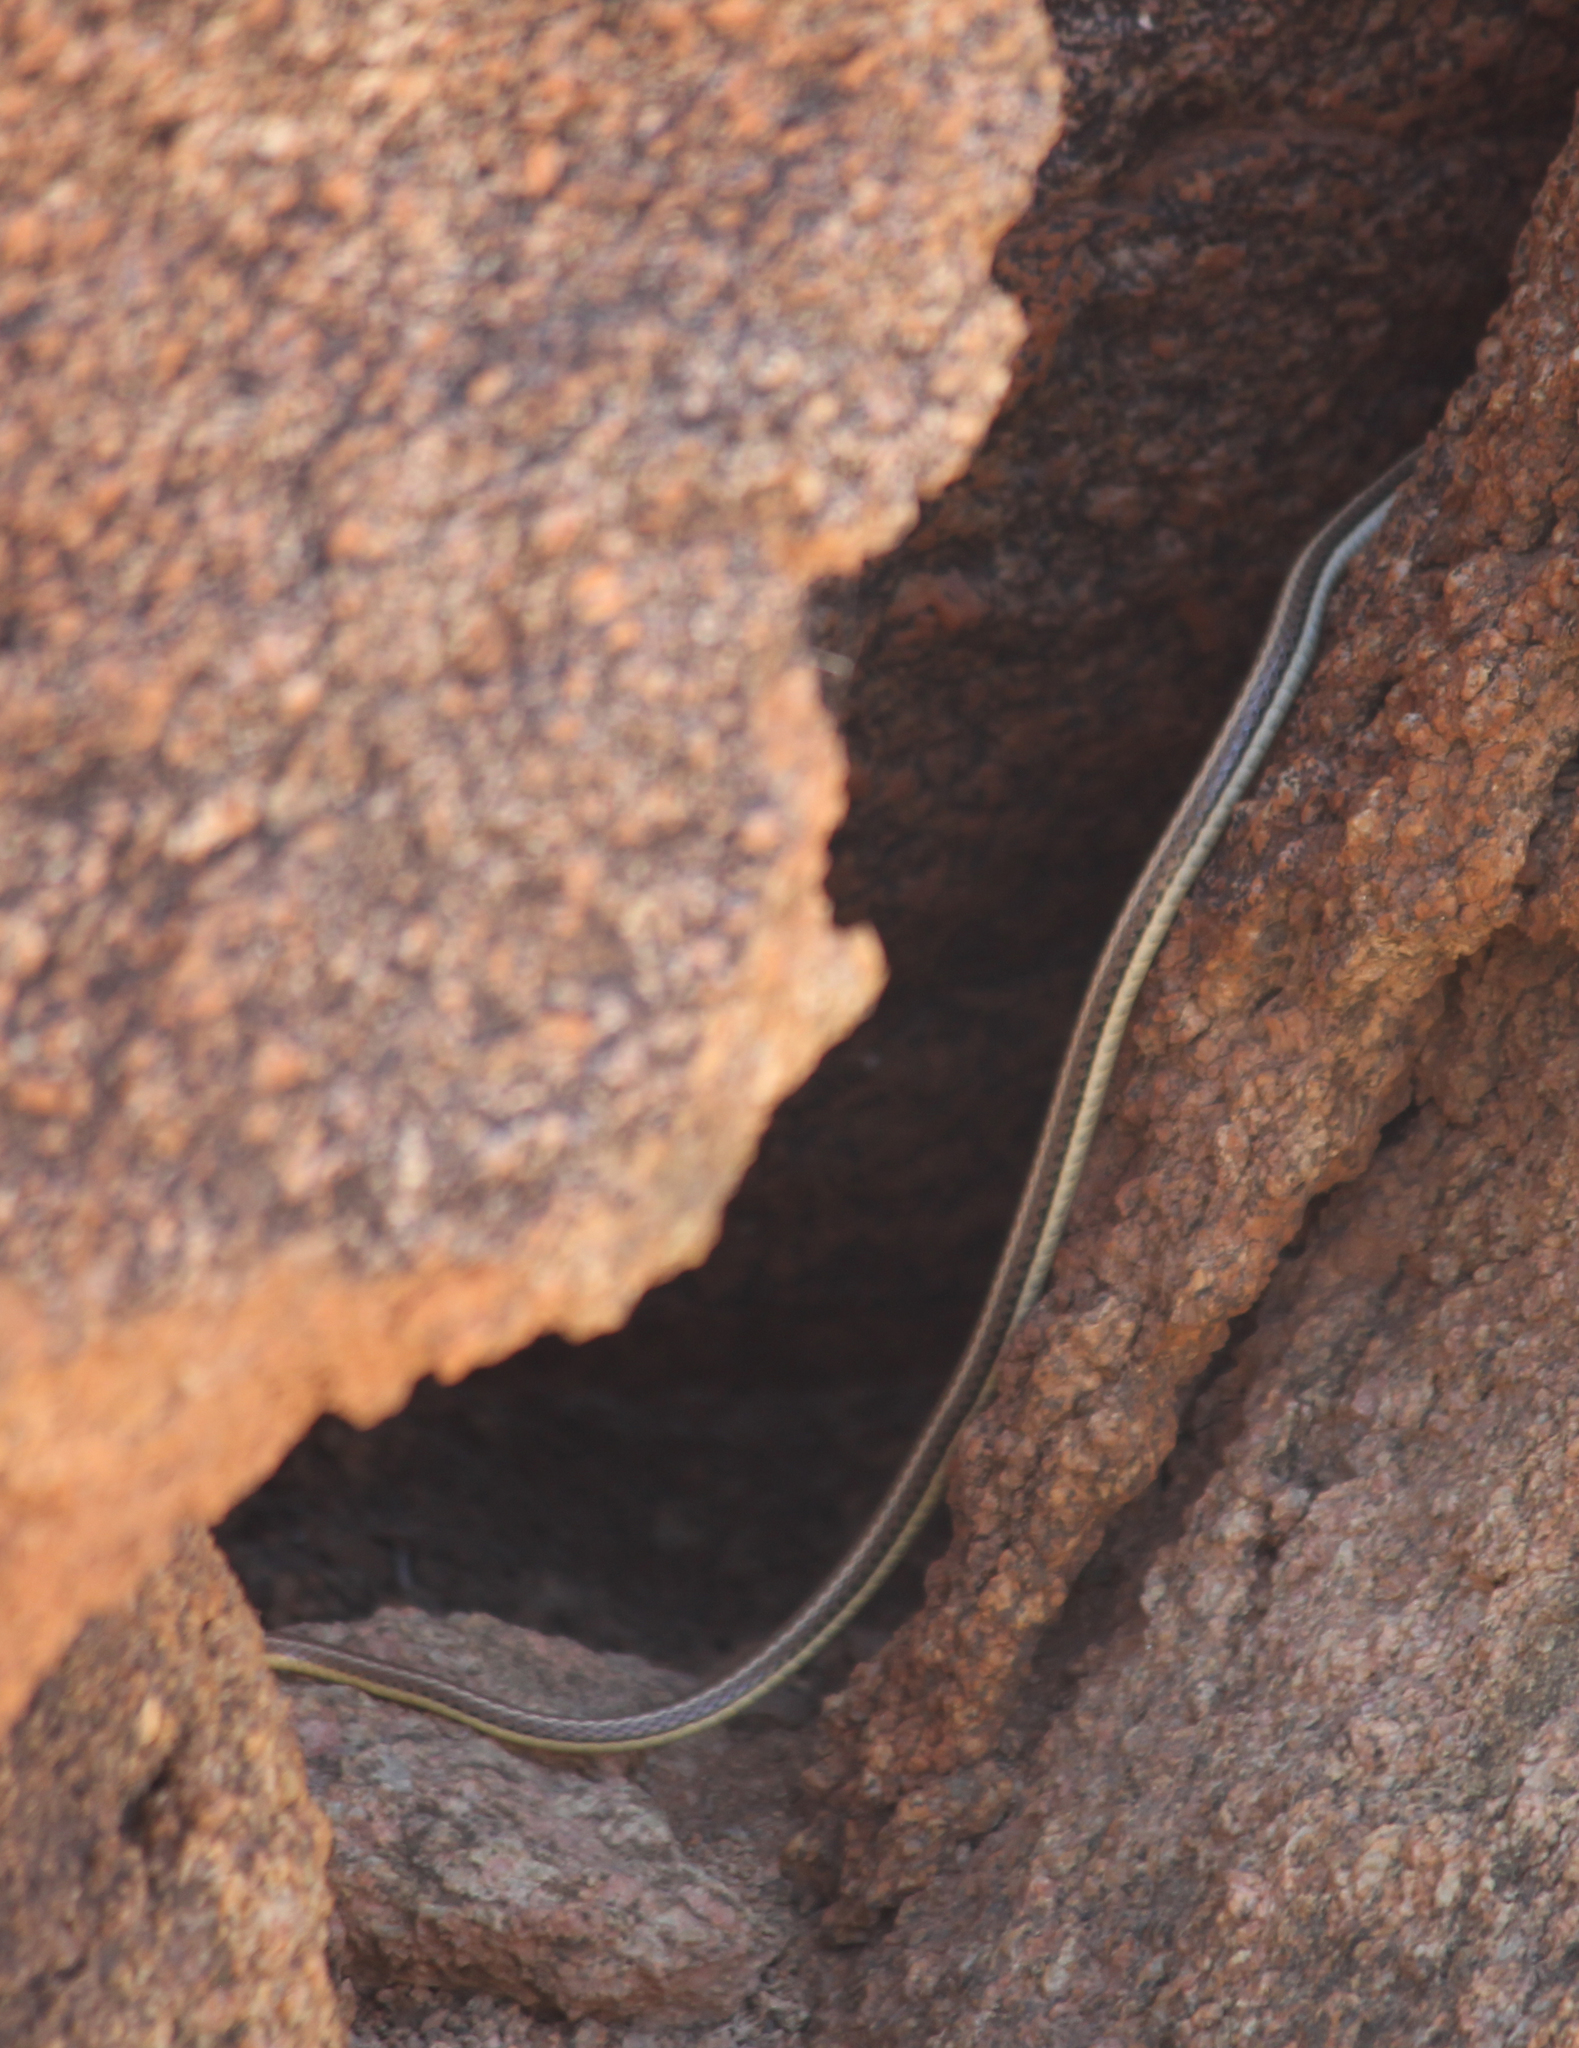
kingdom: Animalia
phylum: Chordata
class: Squamata
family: Psammophiidae
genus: Psammophis
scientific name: Psammophis trigrammus
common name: Western sand snake
